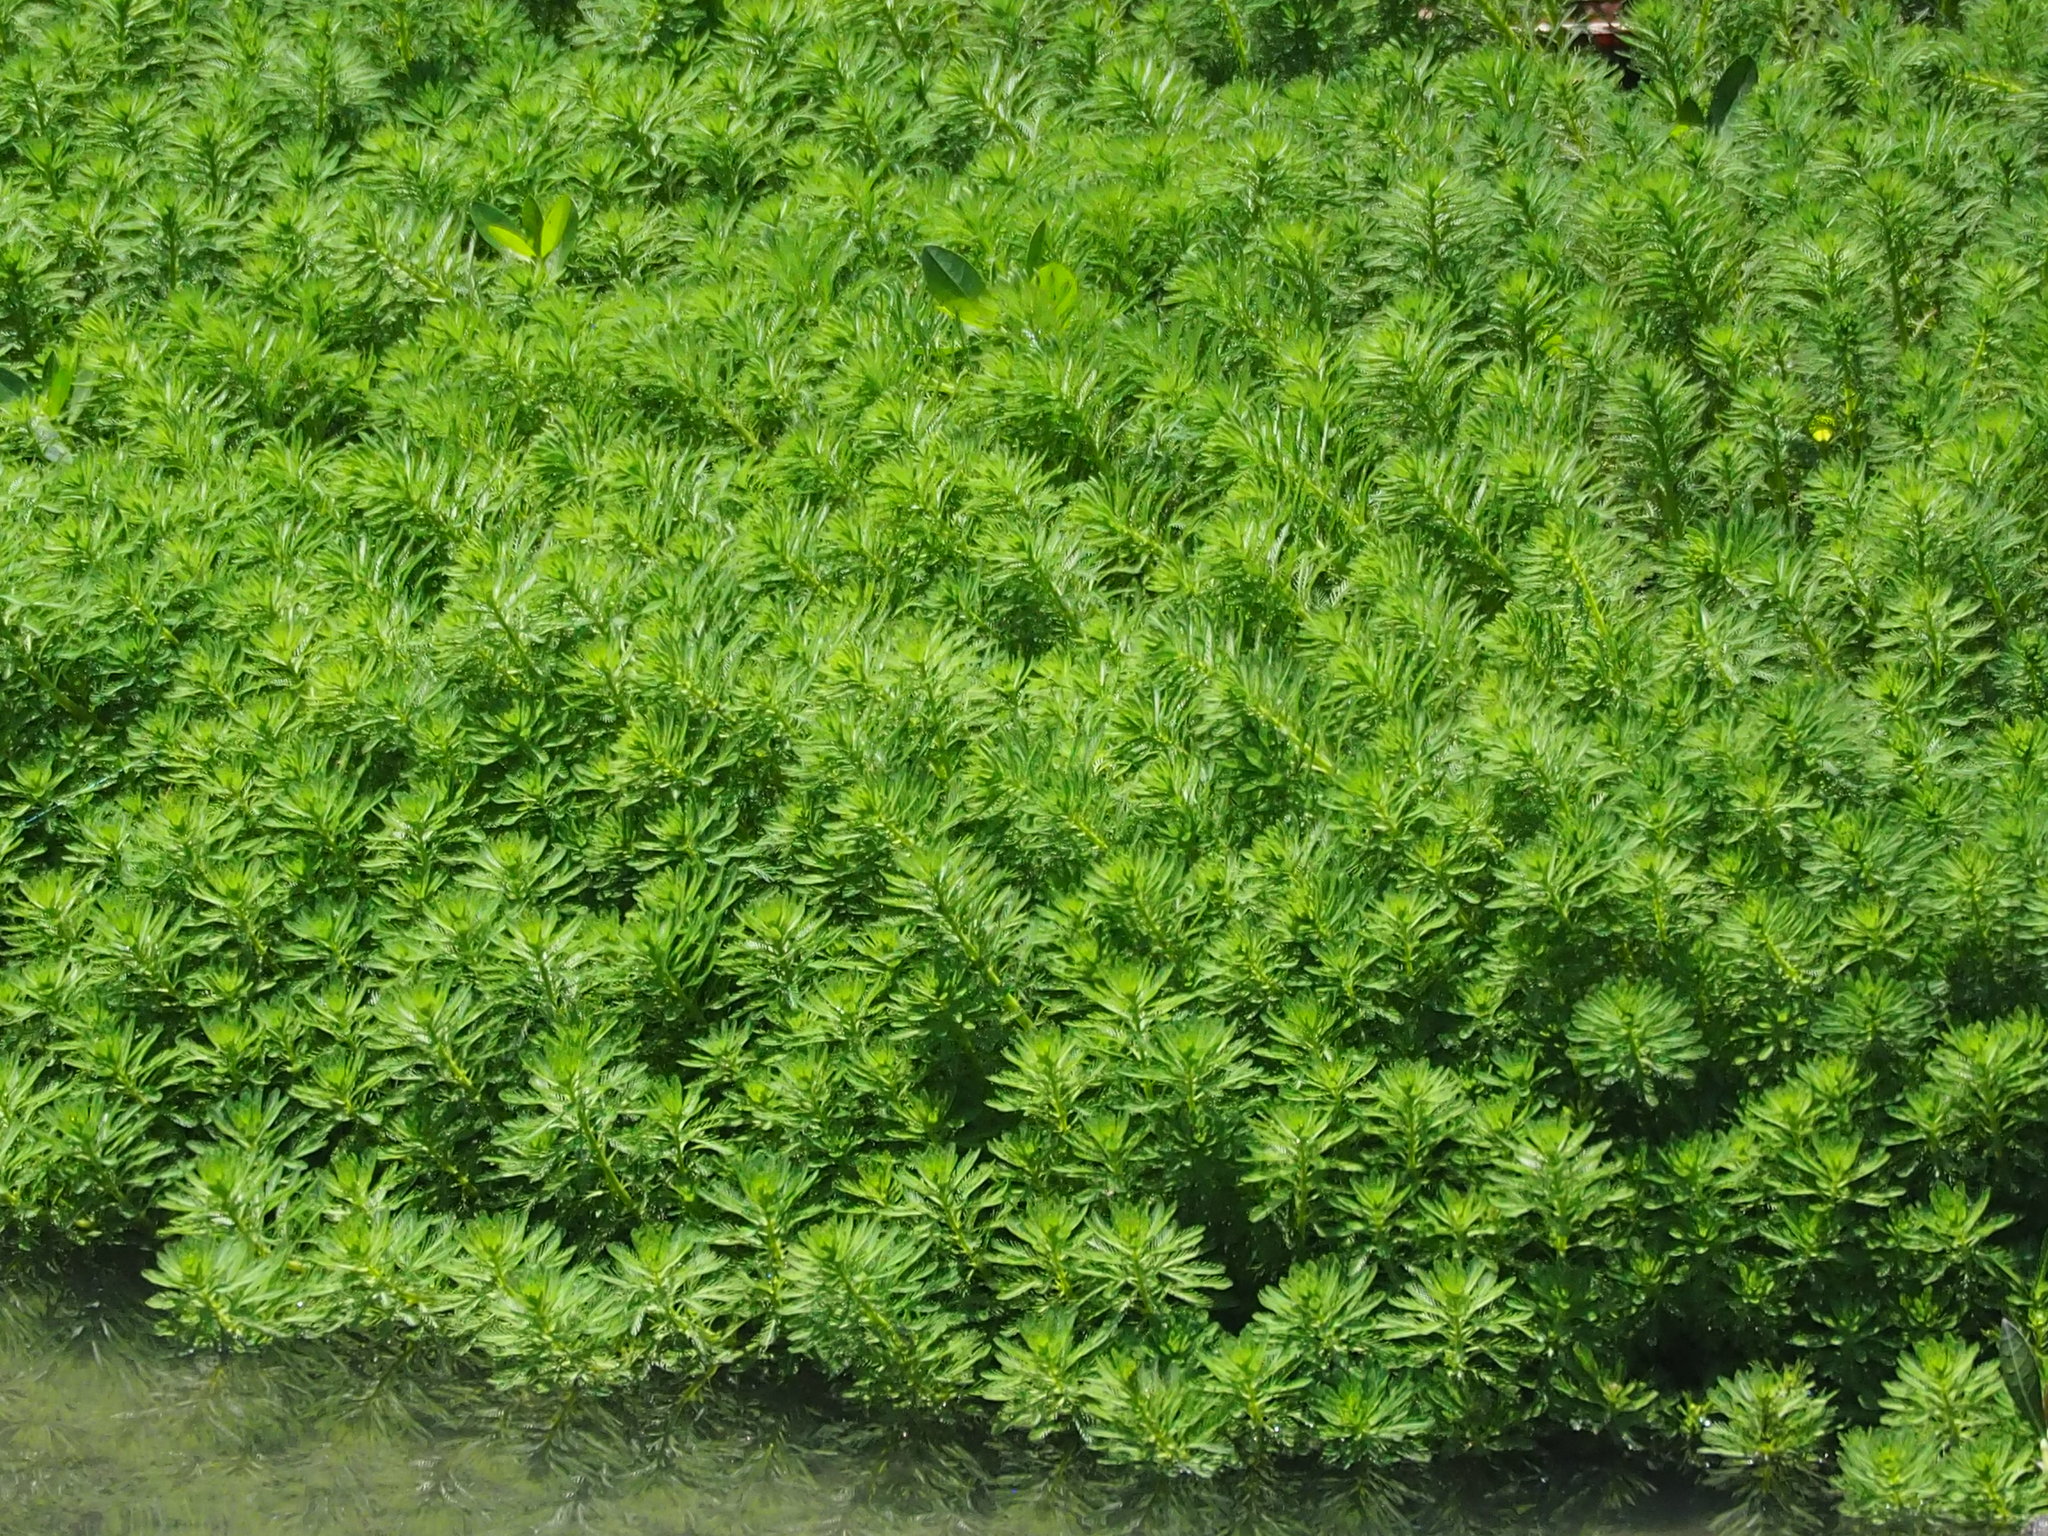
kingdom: Plantae
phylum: Tracheophyta
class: Magnoliopsida
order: Saxifragales
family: Haloragaceae
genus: Myriophyllum
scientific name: Myriophyllum aquaticum
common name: Parrot's feather
